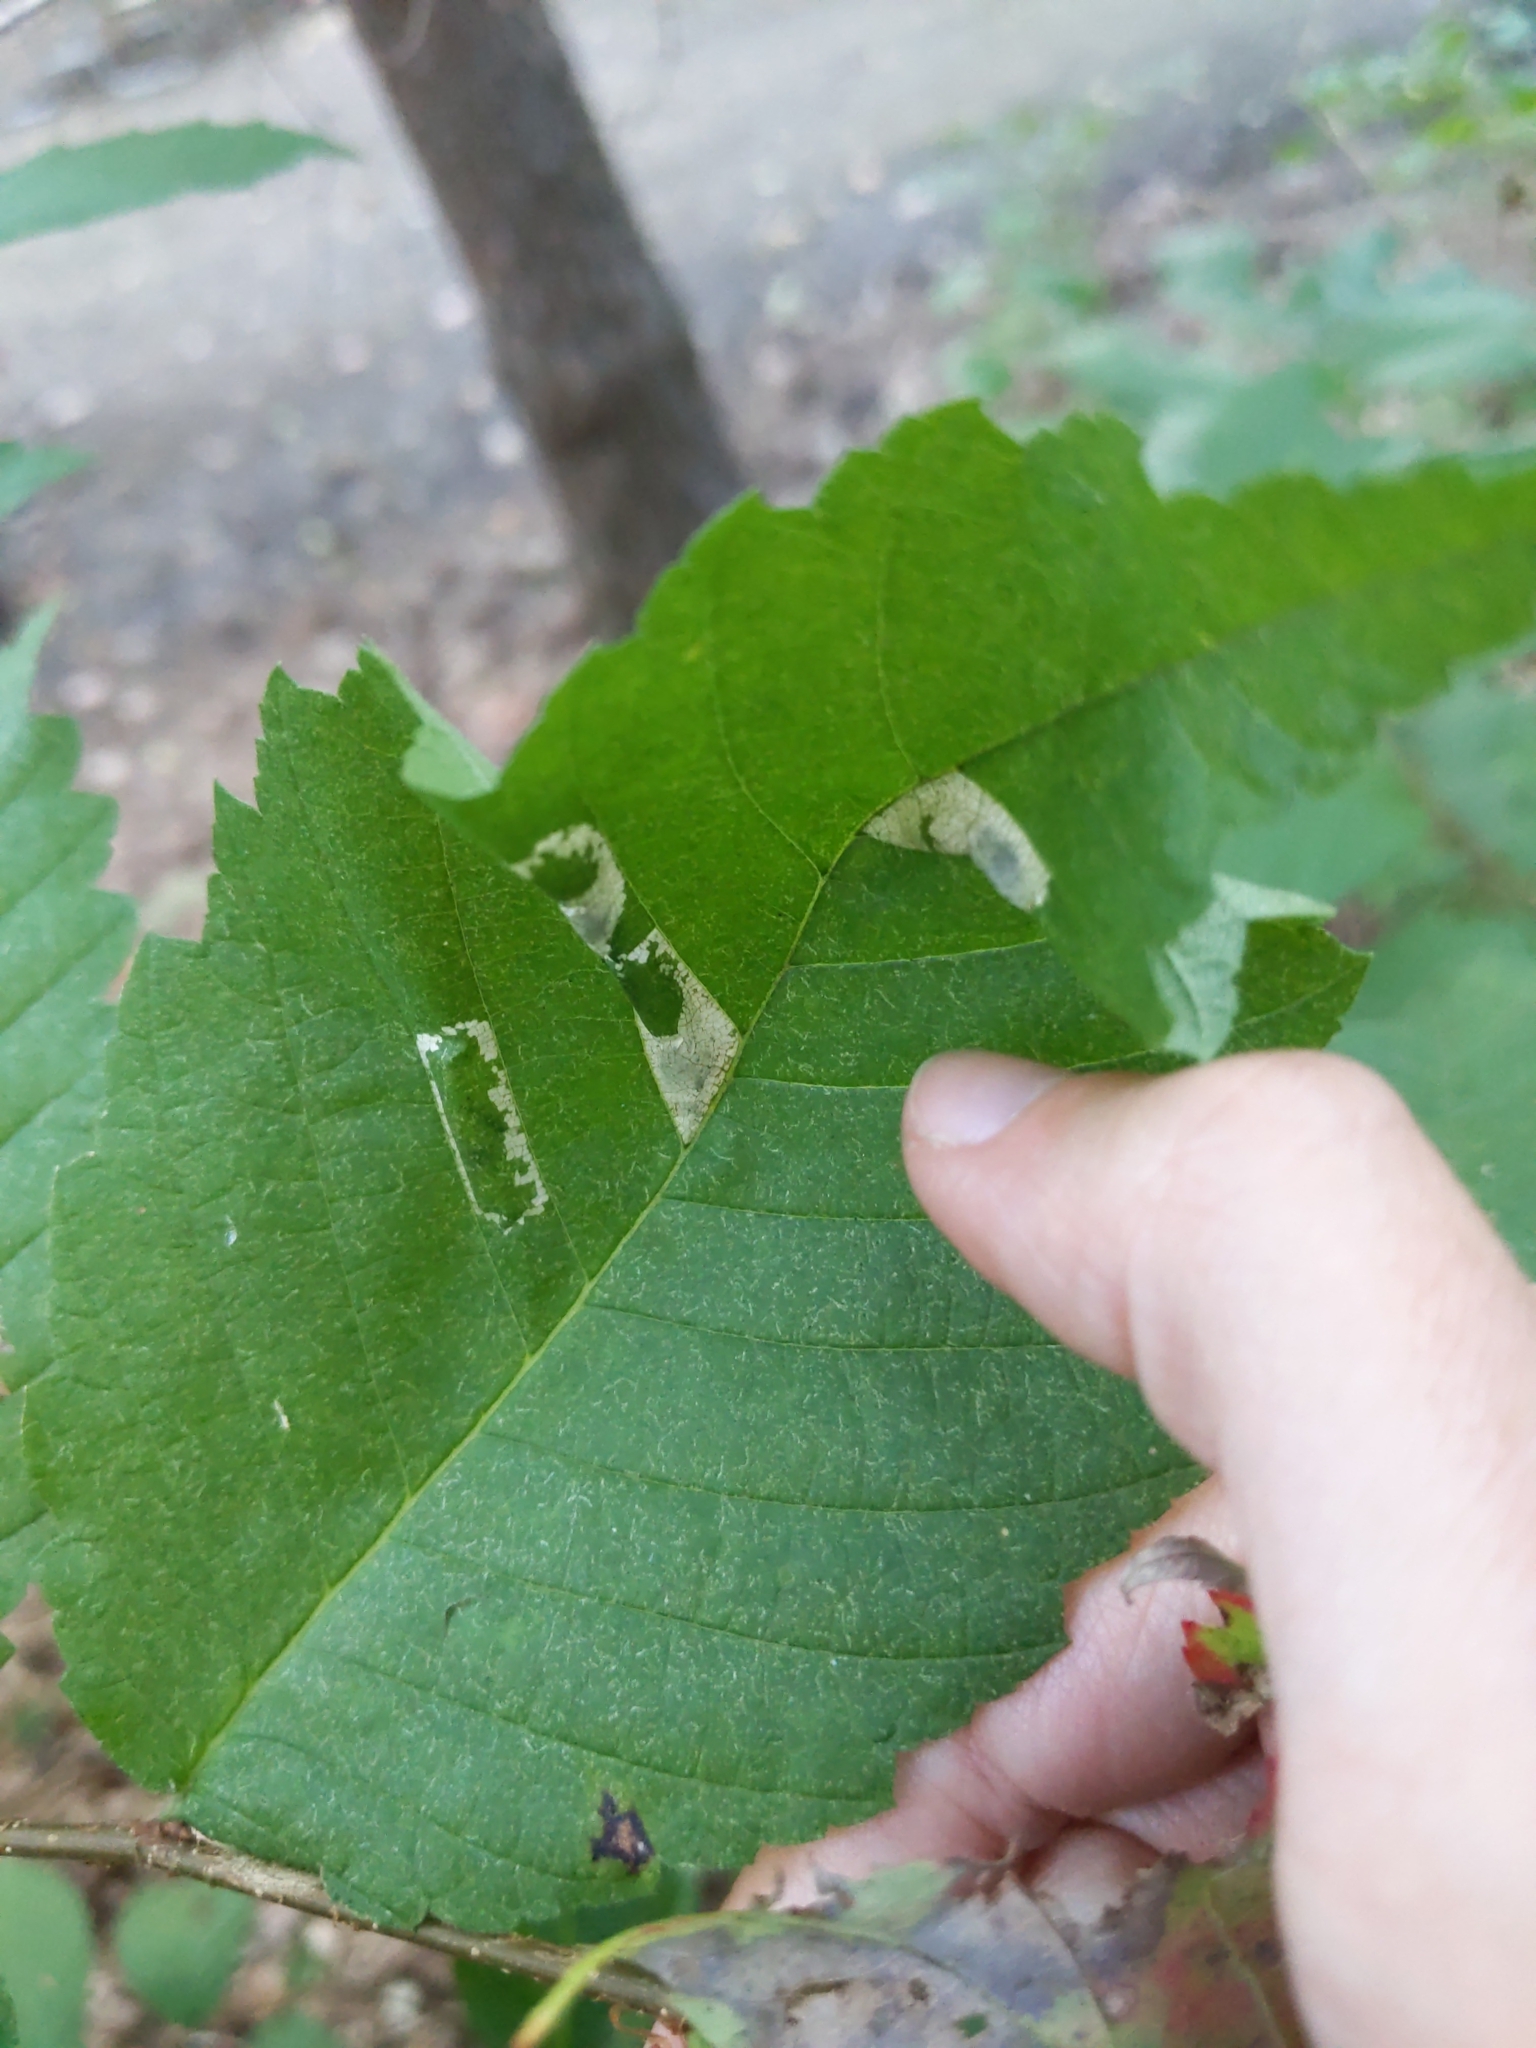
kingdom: Animalia
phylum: Arthropoda
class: Insecta
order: Lepidoptera
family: Gracillariidae
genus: Phyllonorycter
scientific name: Phyllonorycter argentinotella
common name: Golden elm leafminer
